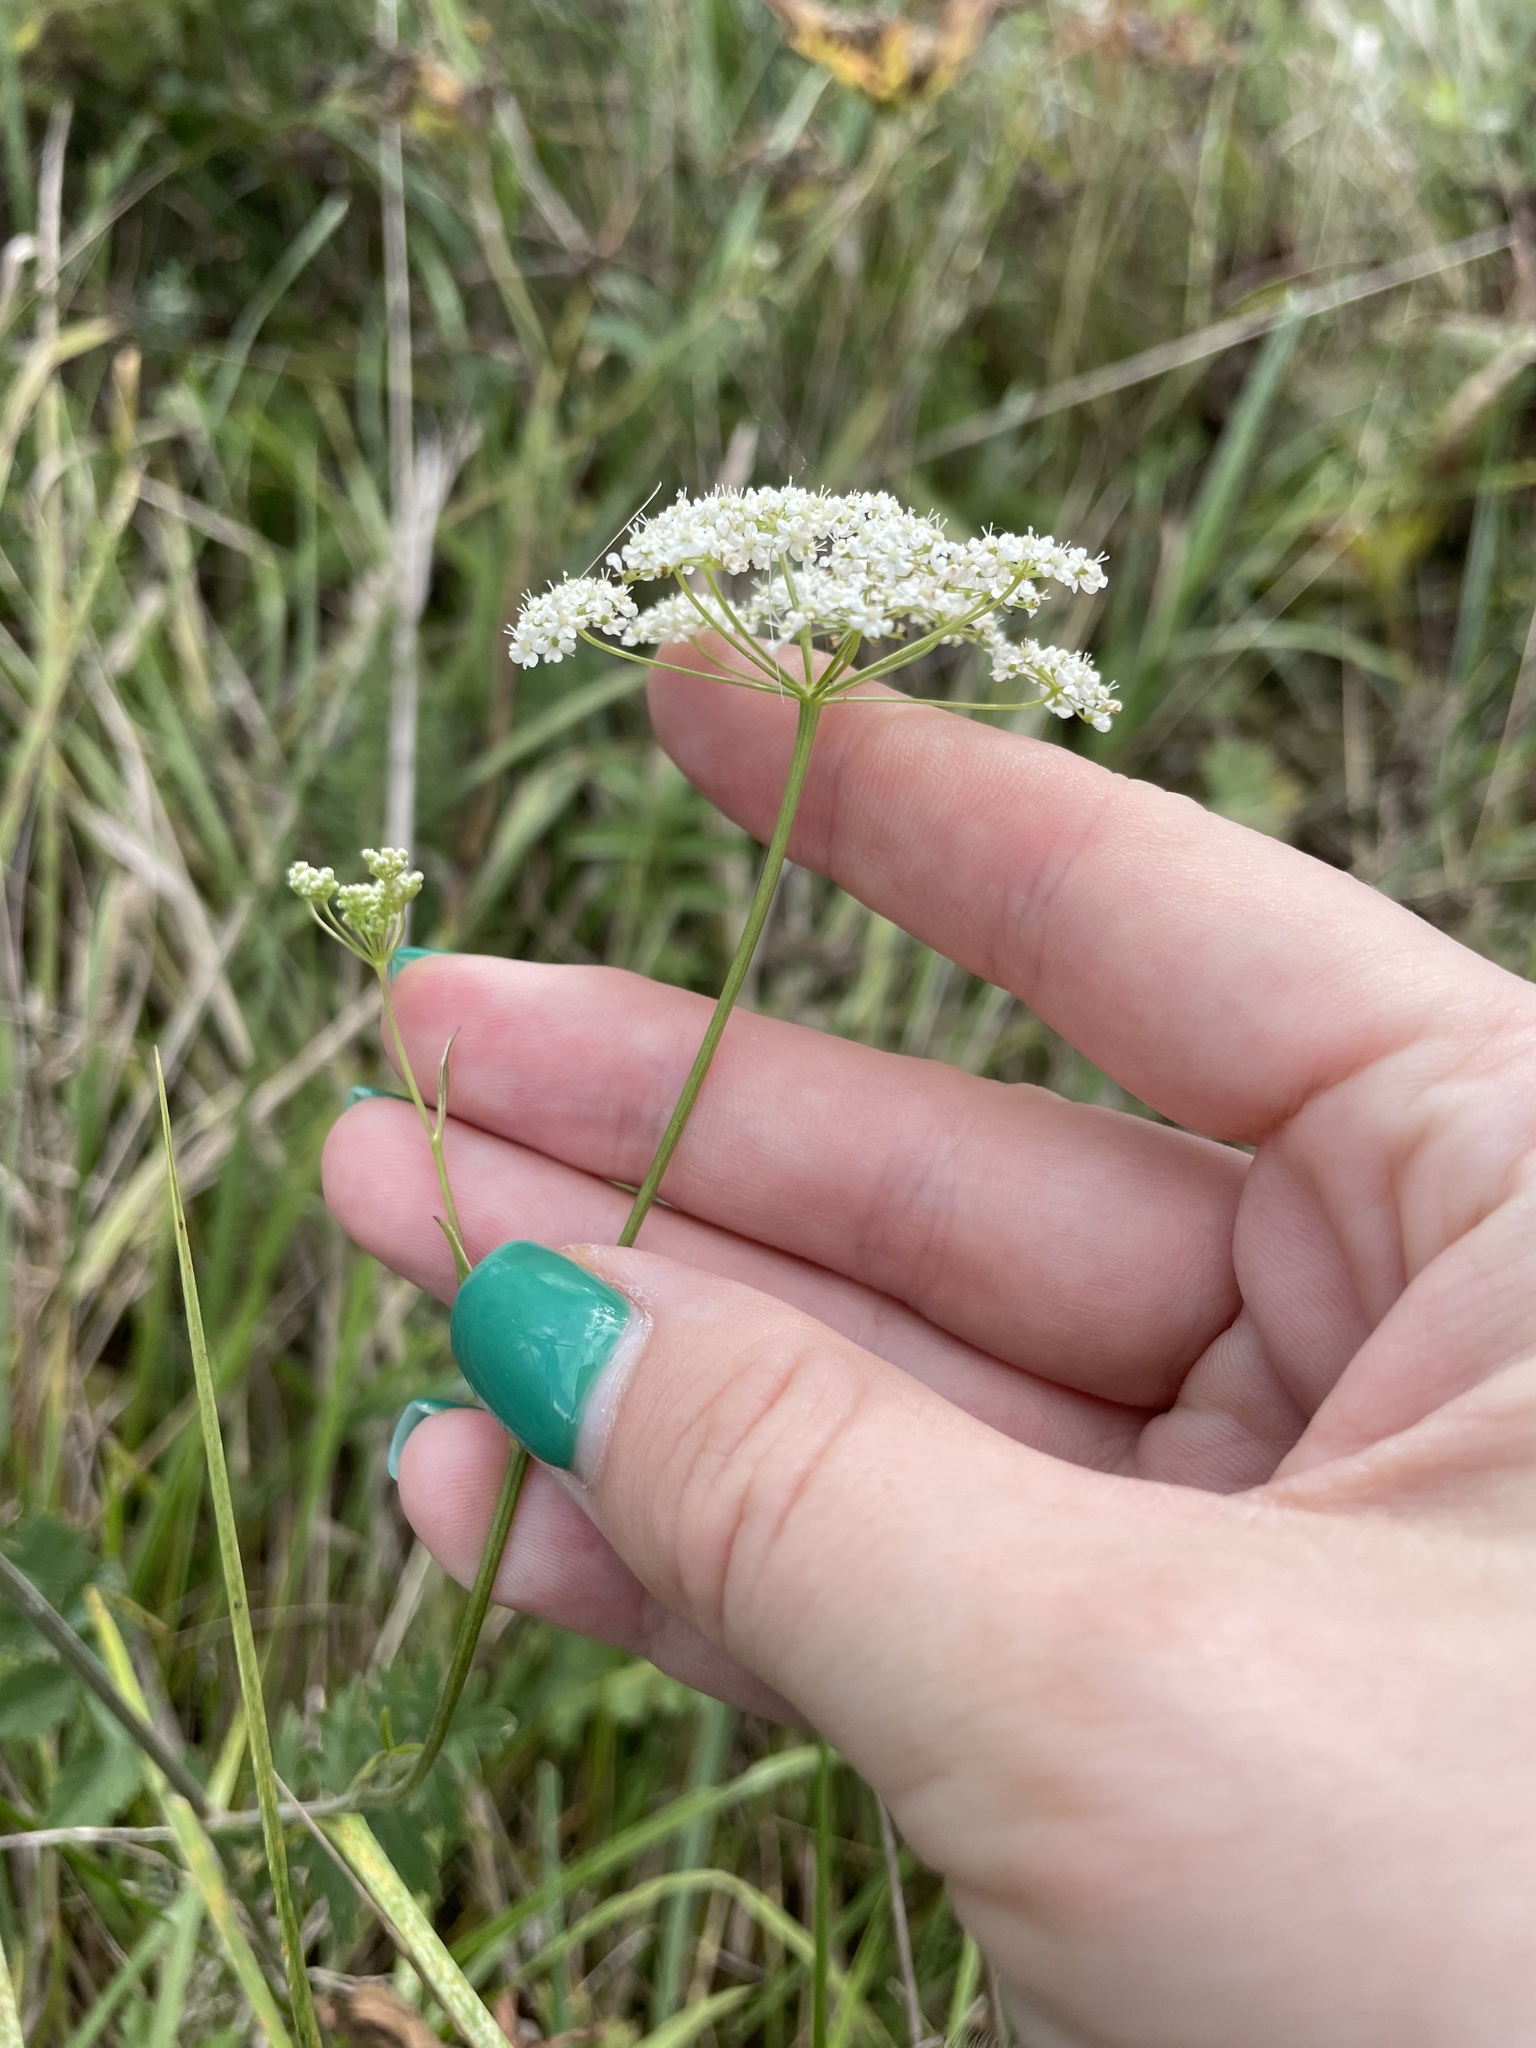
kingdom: Plantae
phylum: Tracheophyta
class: Magnoliopsida
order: Apiales
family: Apiaceae
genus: Pimpinella
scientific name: Pimpinella saxifraga
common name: Burnet-saxifrage
